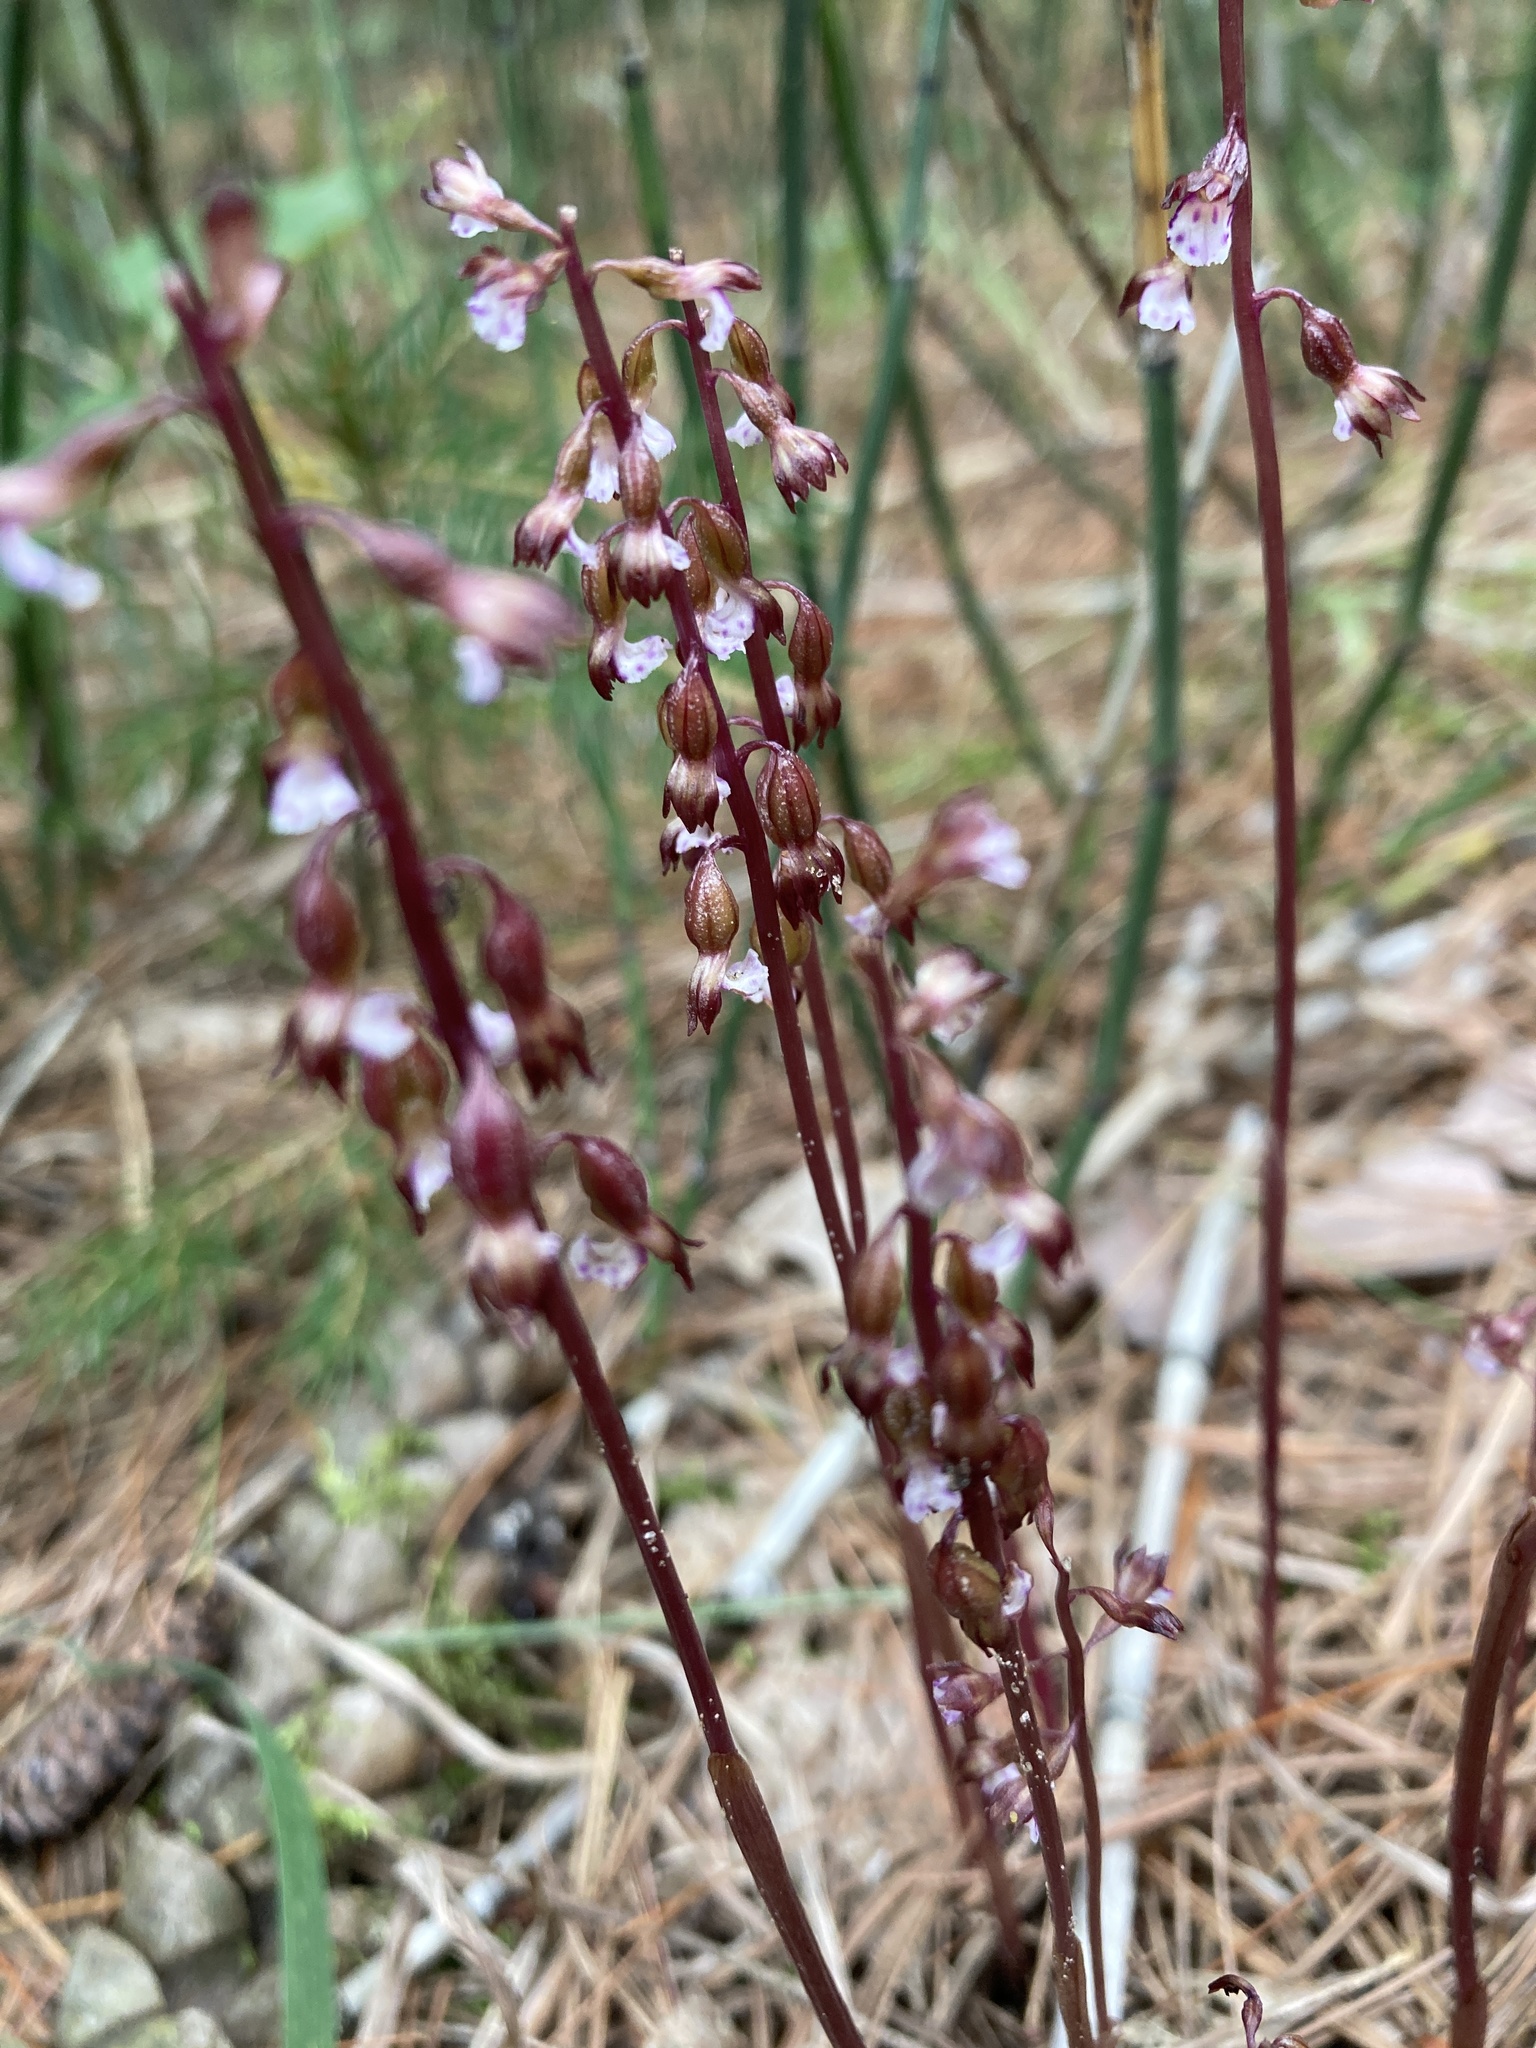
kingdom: Plantae
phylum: Tracheophyta
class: Liliopsida
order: Asparagales
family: Orchidaceae
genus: Corallorhiza
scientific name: Corallorhiza odontorhiza
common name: Autumn coralroot
